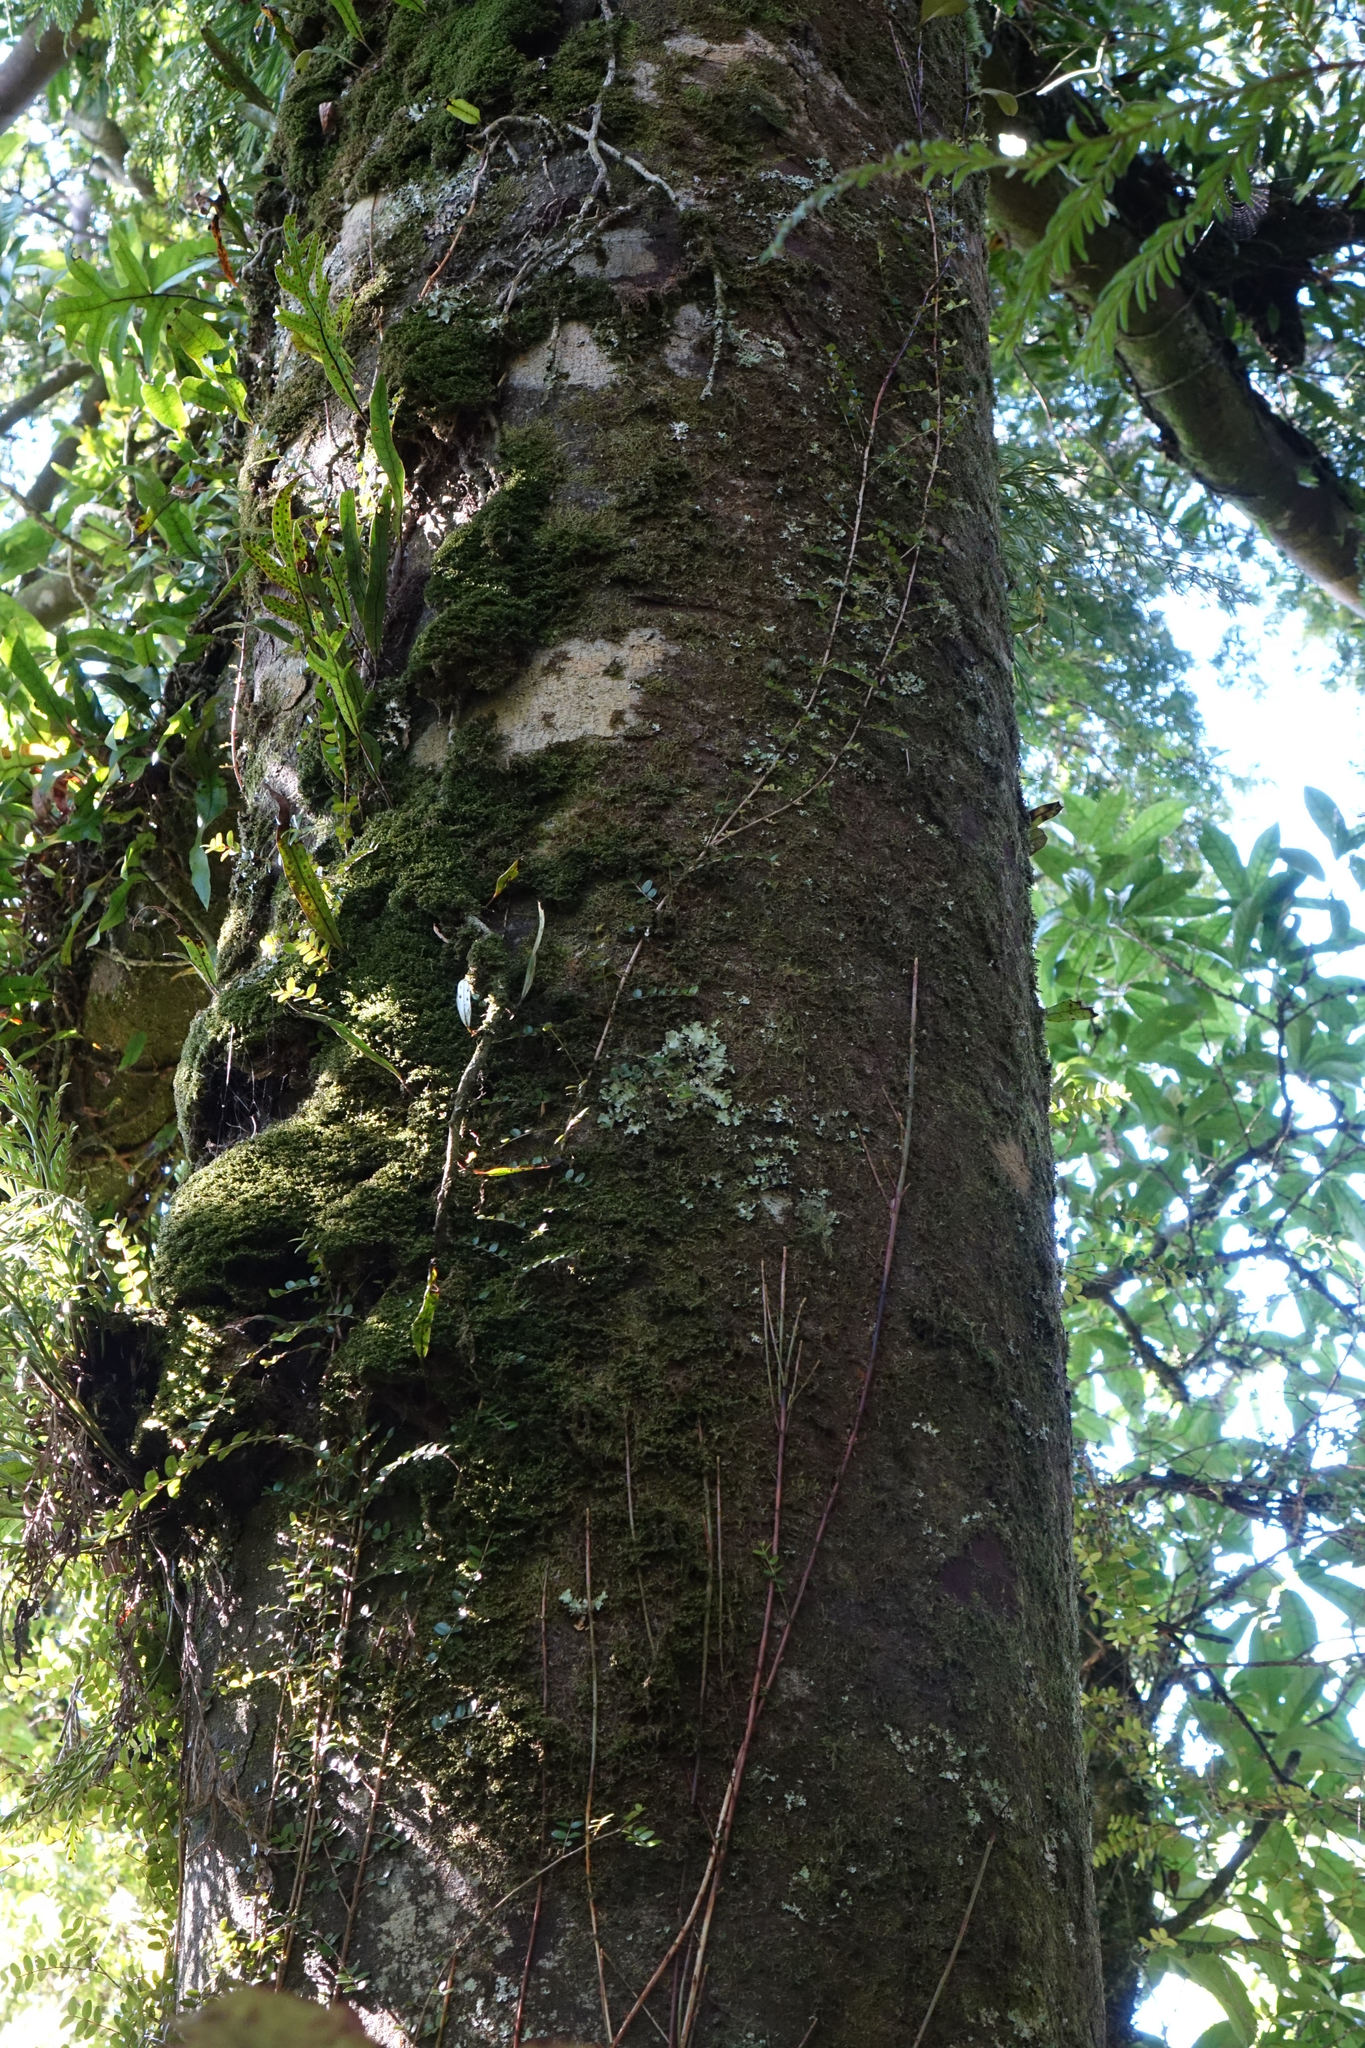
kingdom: Plantae
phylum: Tracheophyta
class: Pinopsida
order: Pinales
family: Podocarpaceae
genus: Prumnopitys
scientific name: Prumnopitys ferruginea
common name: Brown pine
